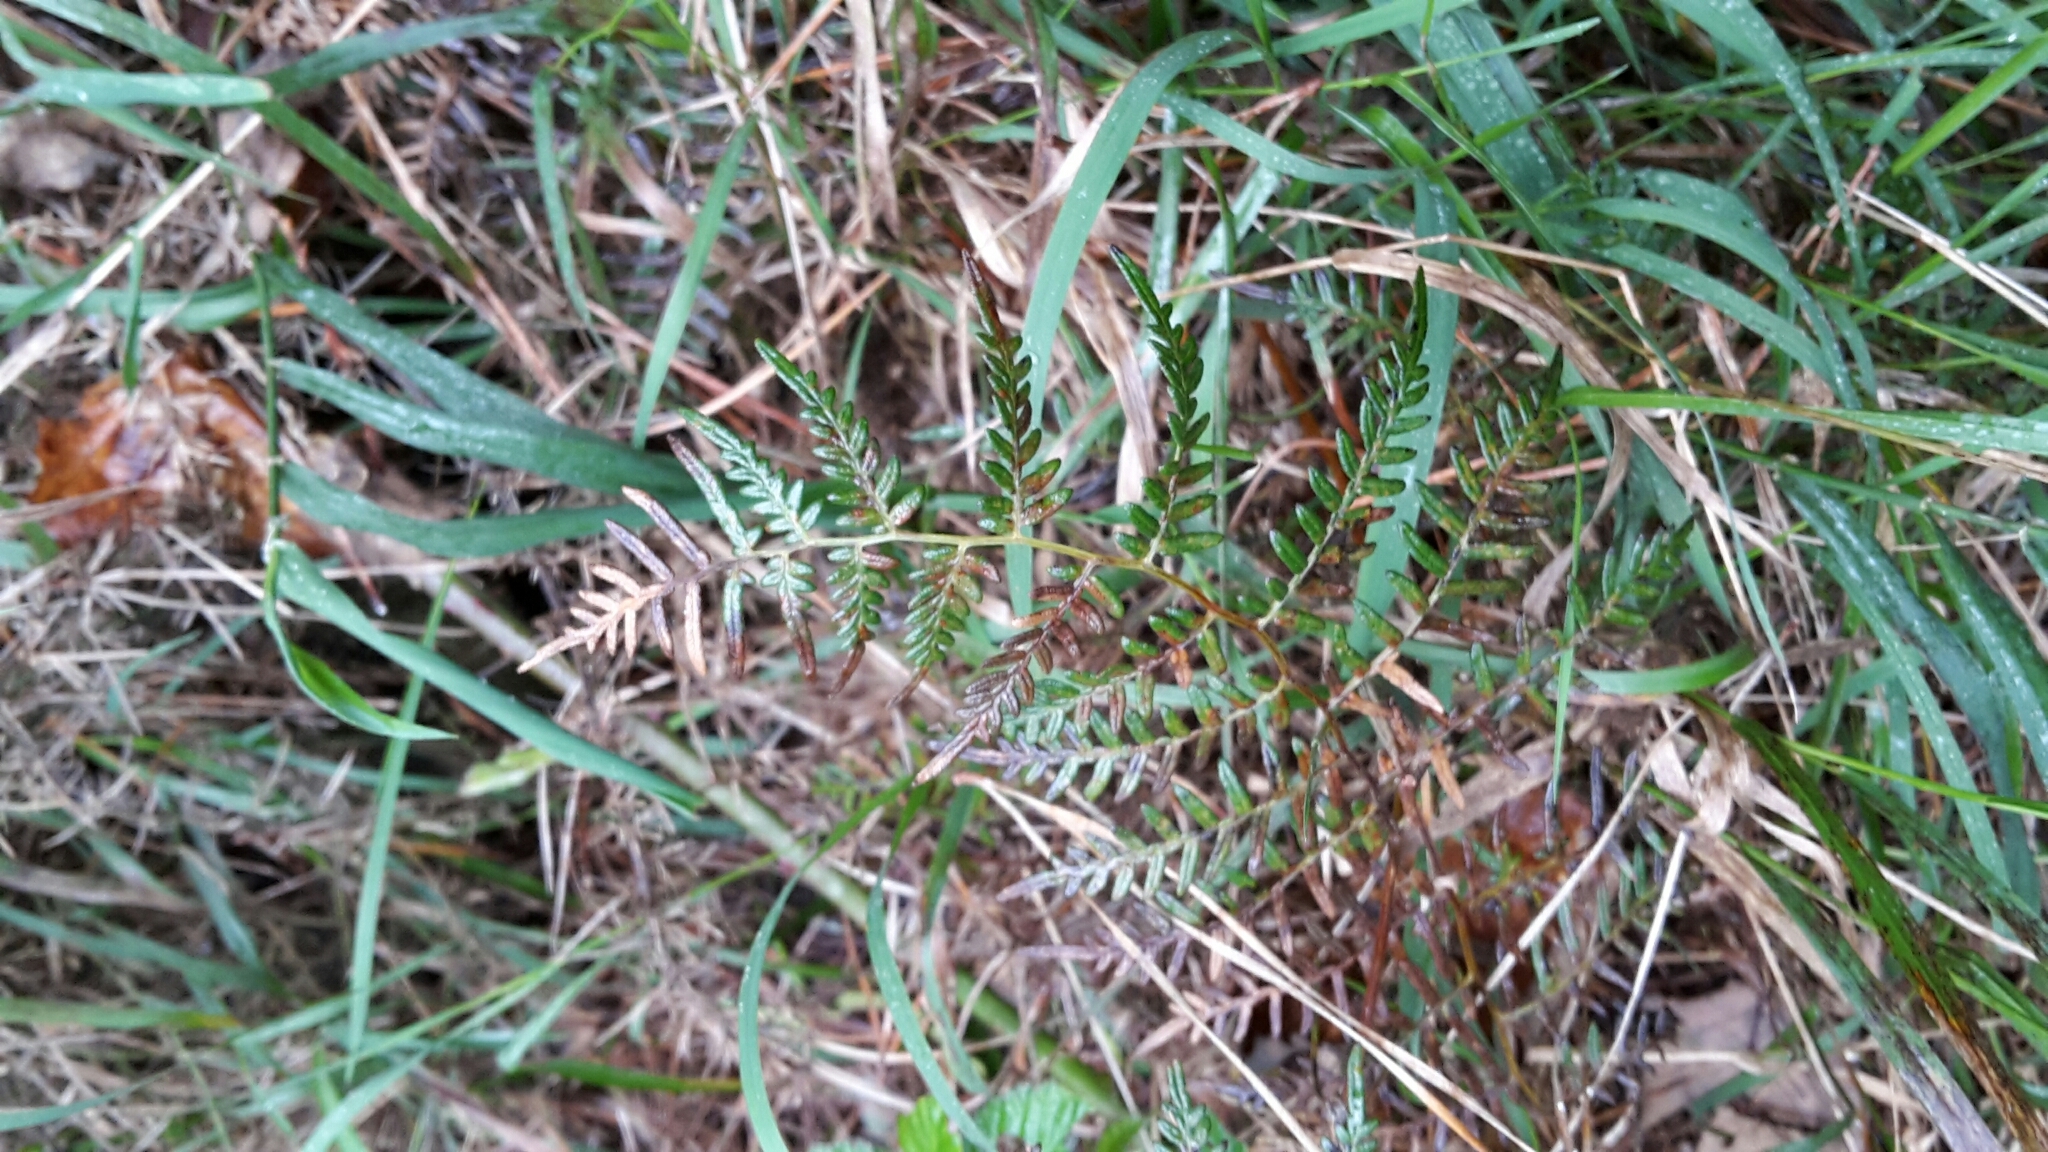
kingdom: Plantae
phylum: Tracheophyta
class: Polypodiopsida
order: Polypodiales
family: Dennstaedtiaceae
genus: Pteridium
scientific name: Pteridium esculentum
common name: Bracken fern
